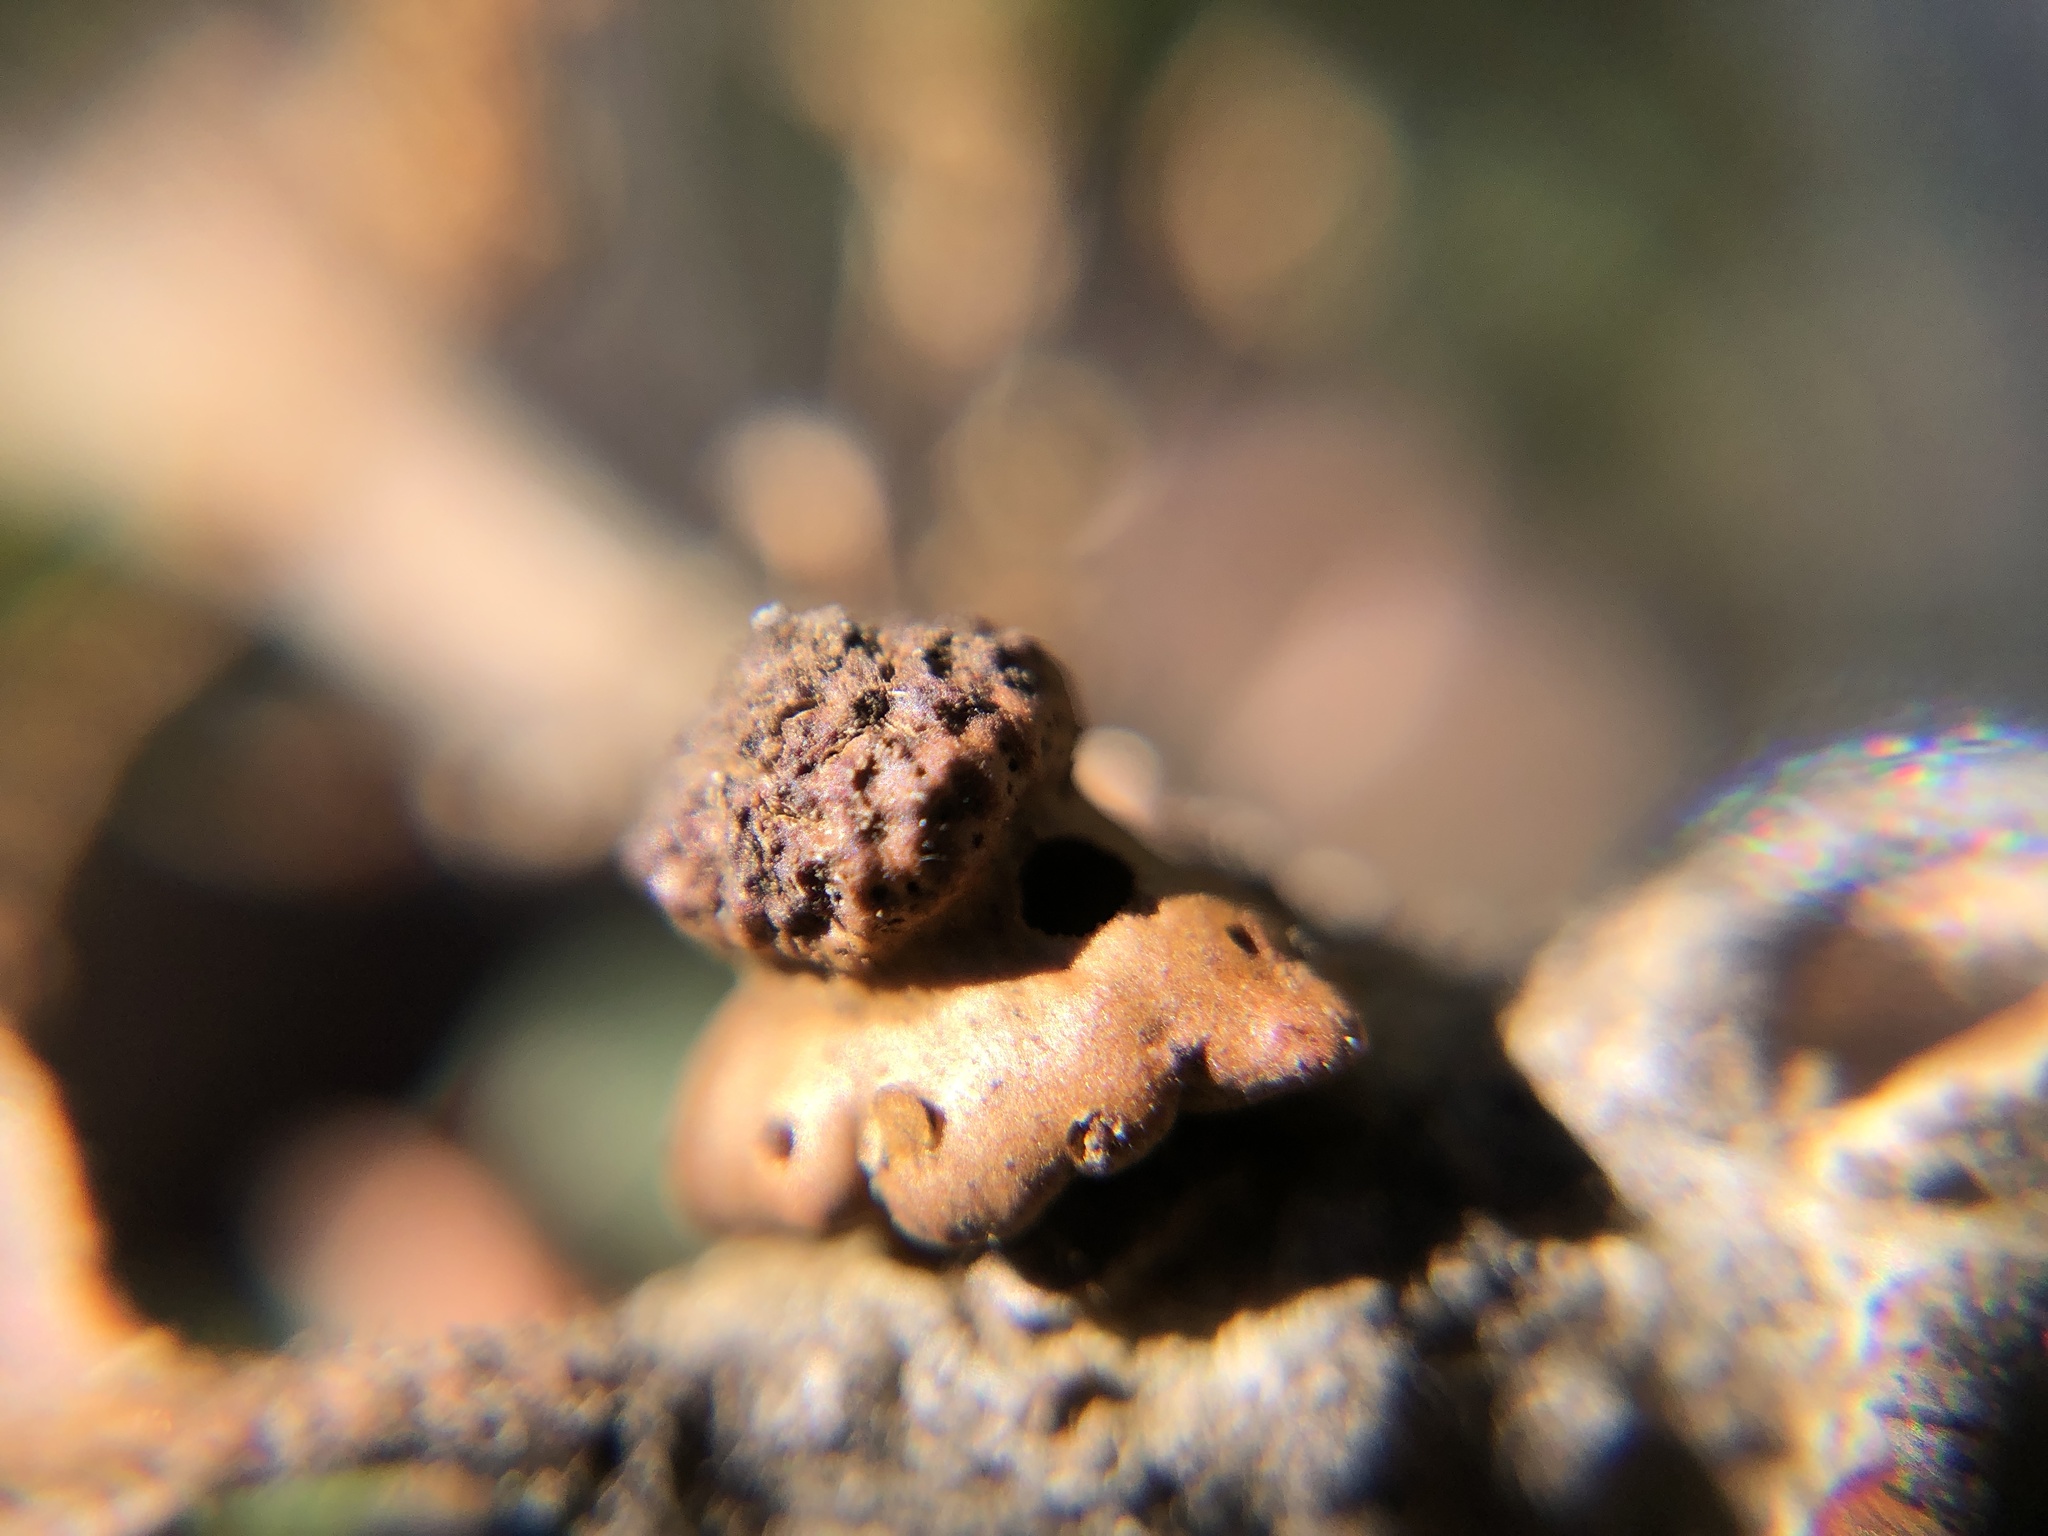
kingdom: Animalia
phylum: Arthropoda
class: Insecta
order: Hymenoptera
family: Cynipidae
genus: Disholcaspis
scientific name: Disholcaspis prehensa
